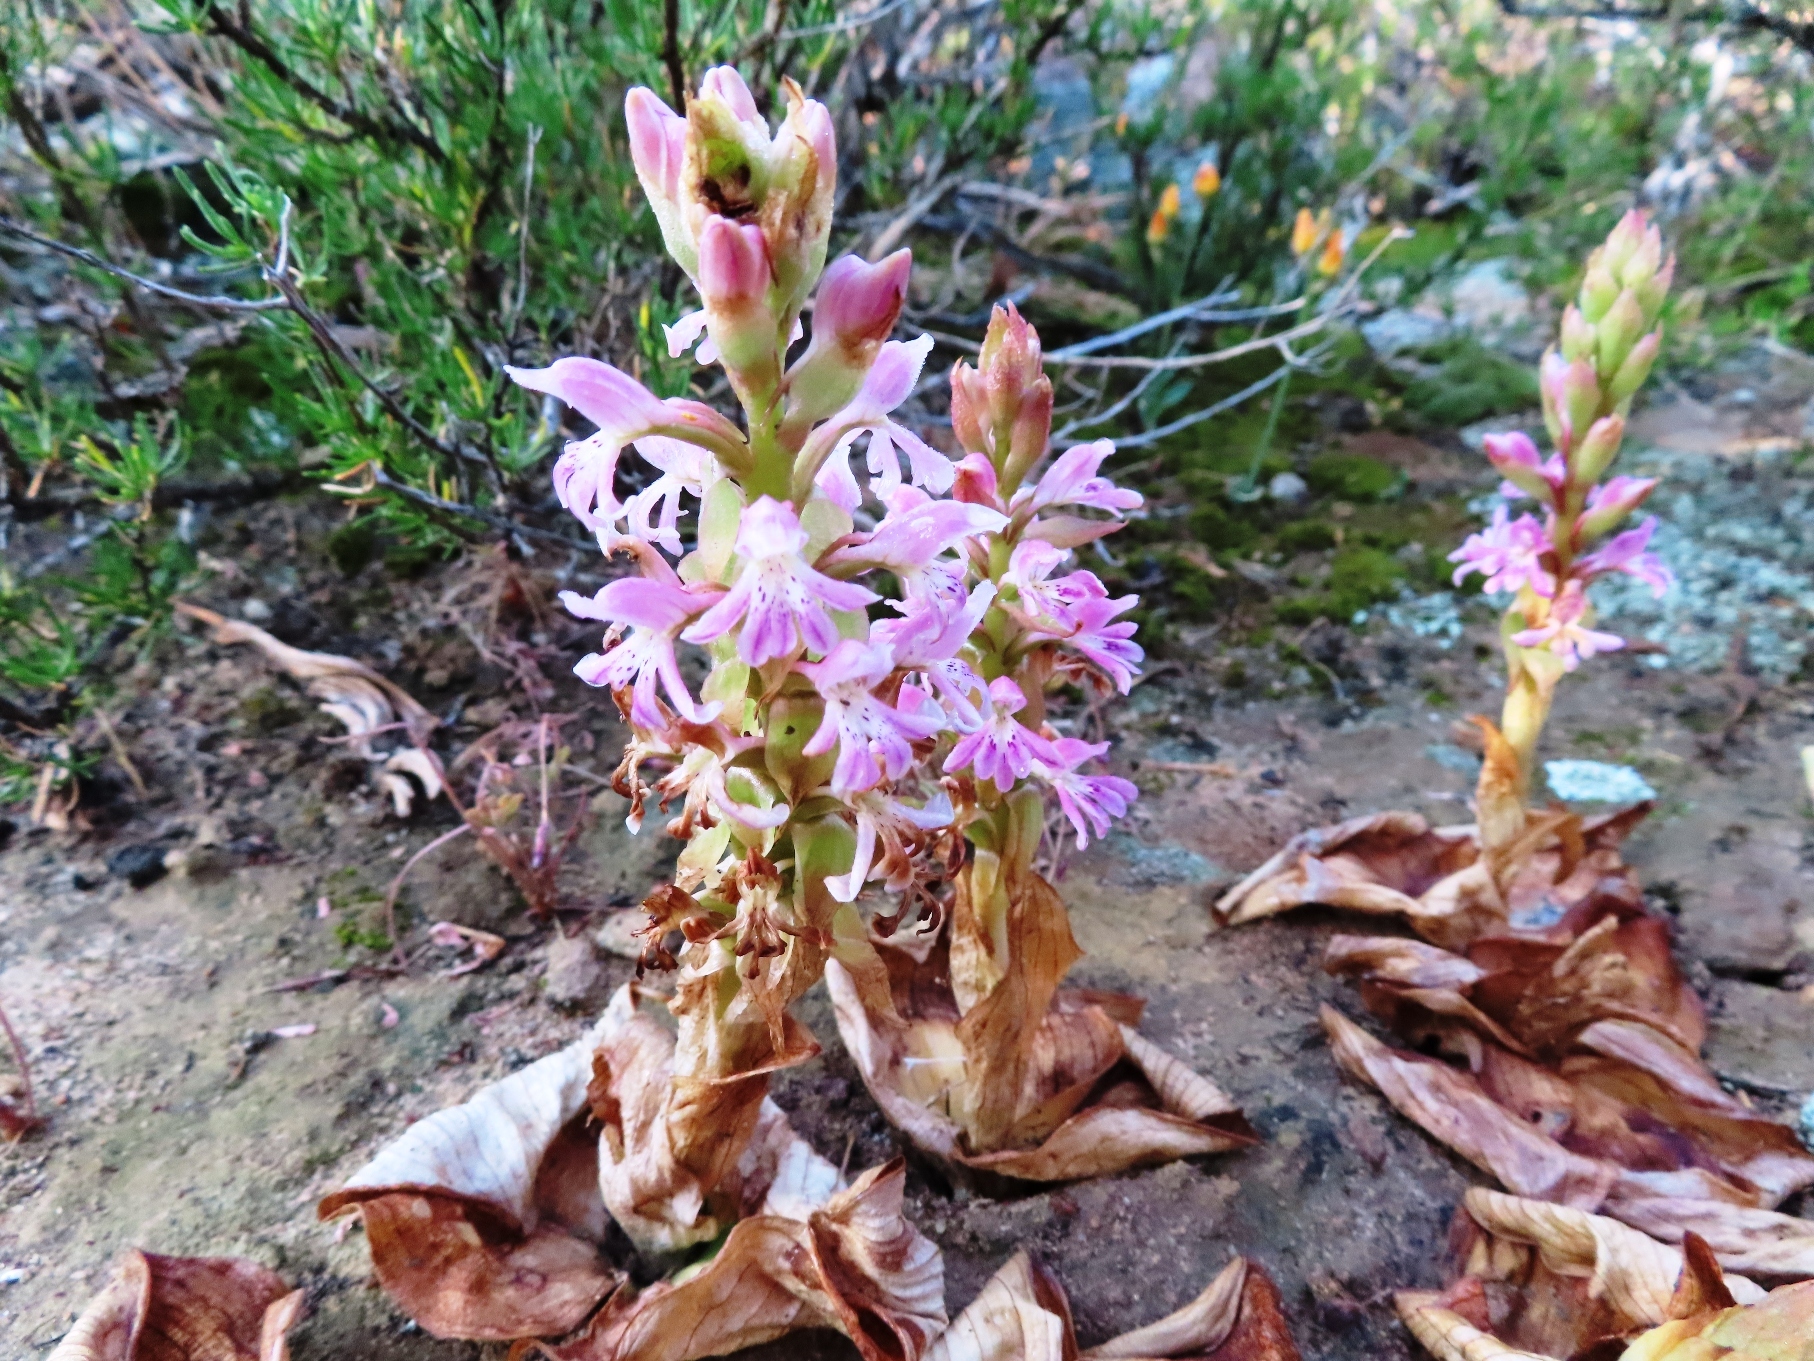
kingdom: Plantae
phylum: Tracheophyta
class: Liliopsida
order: Asparagales
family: Orchidaceae
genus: Satyrium
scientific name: Satyrium erectum
